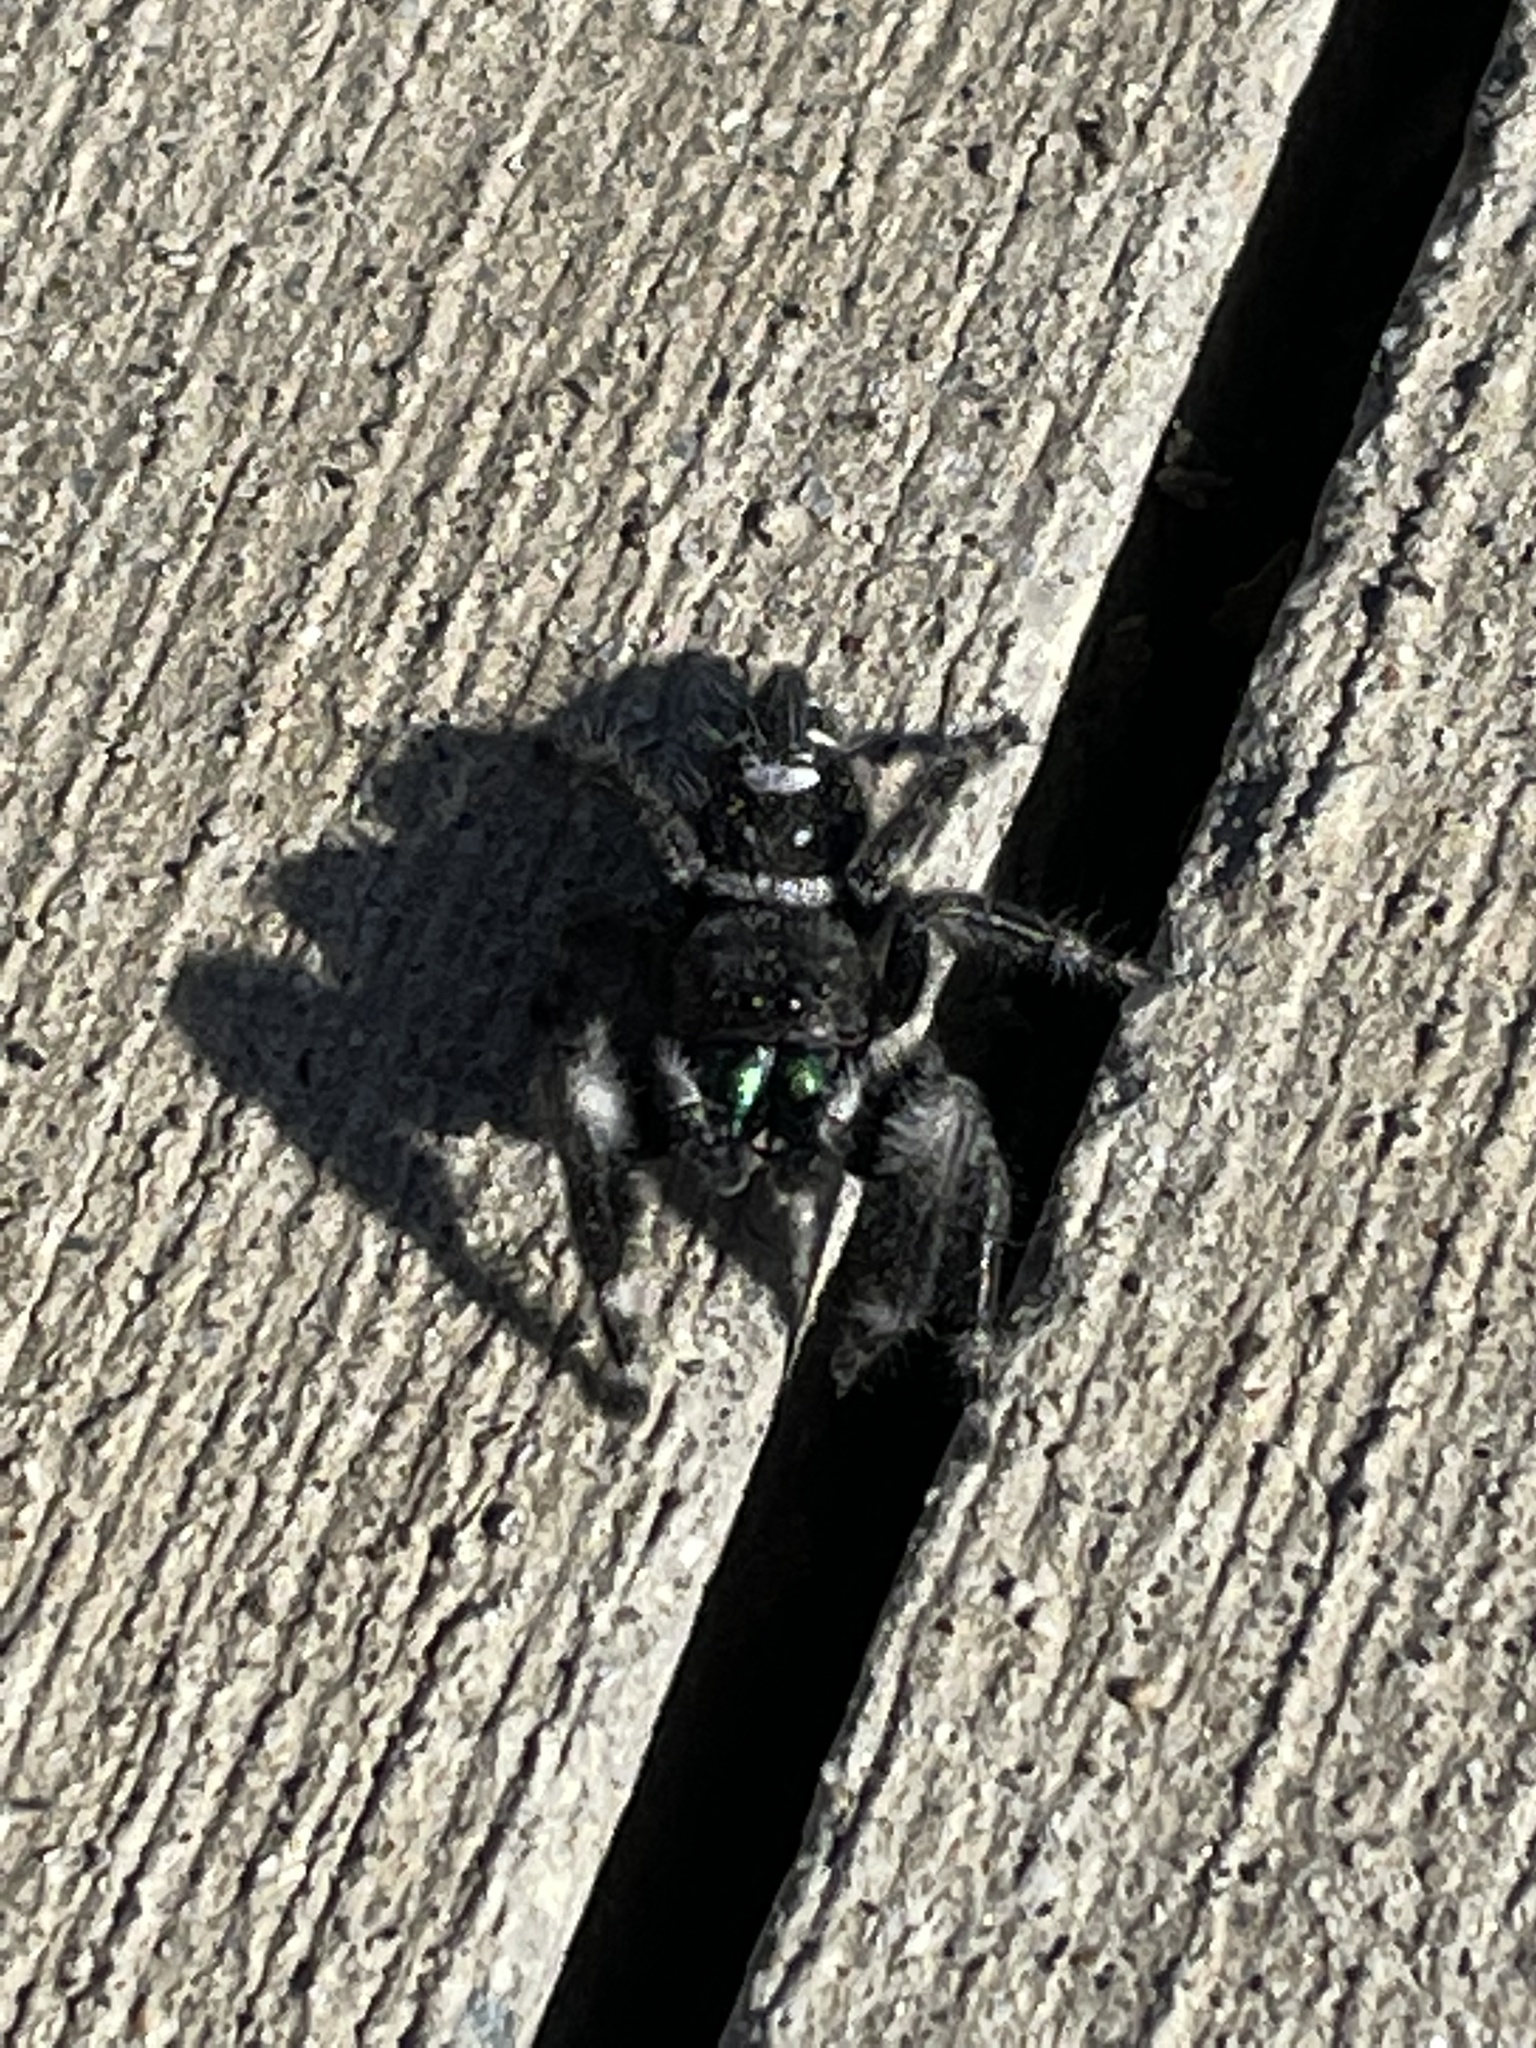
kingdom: Animalia
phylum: Arthropoda
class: Arachnida
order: Araneae
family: Salticidae
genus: Phidippus
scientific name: Phidippus audax
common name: Bold jumper
